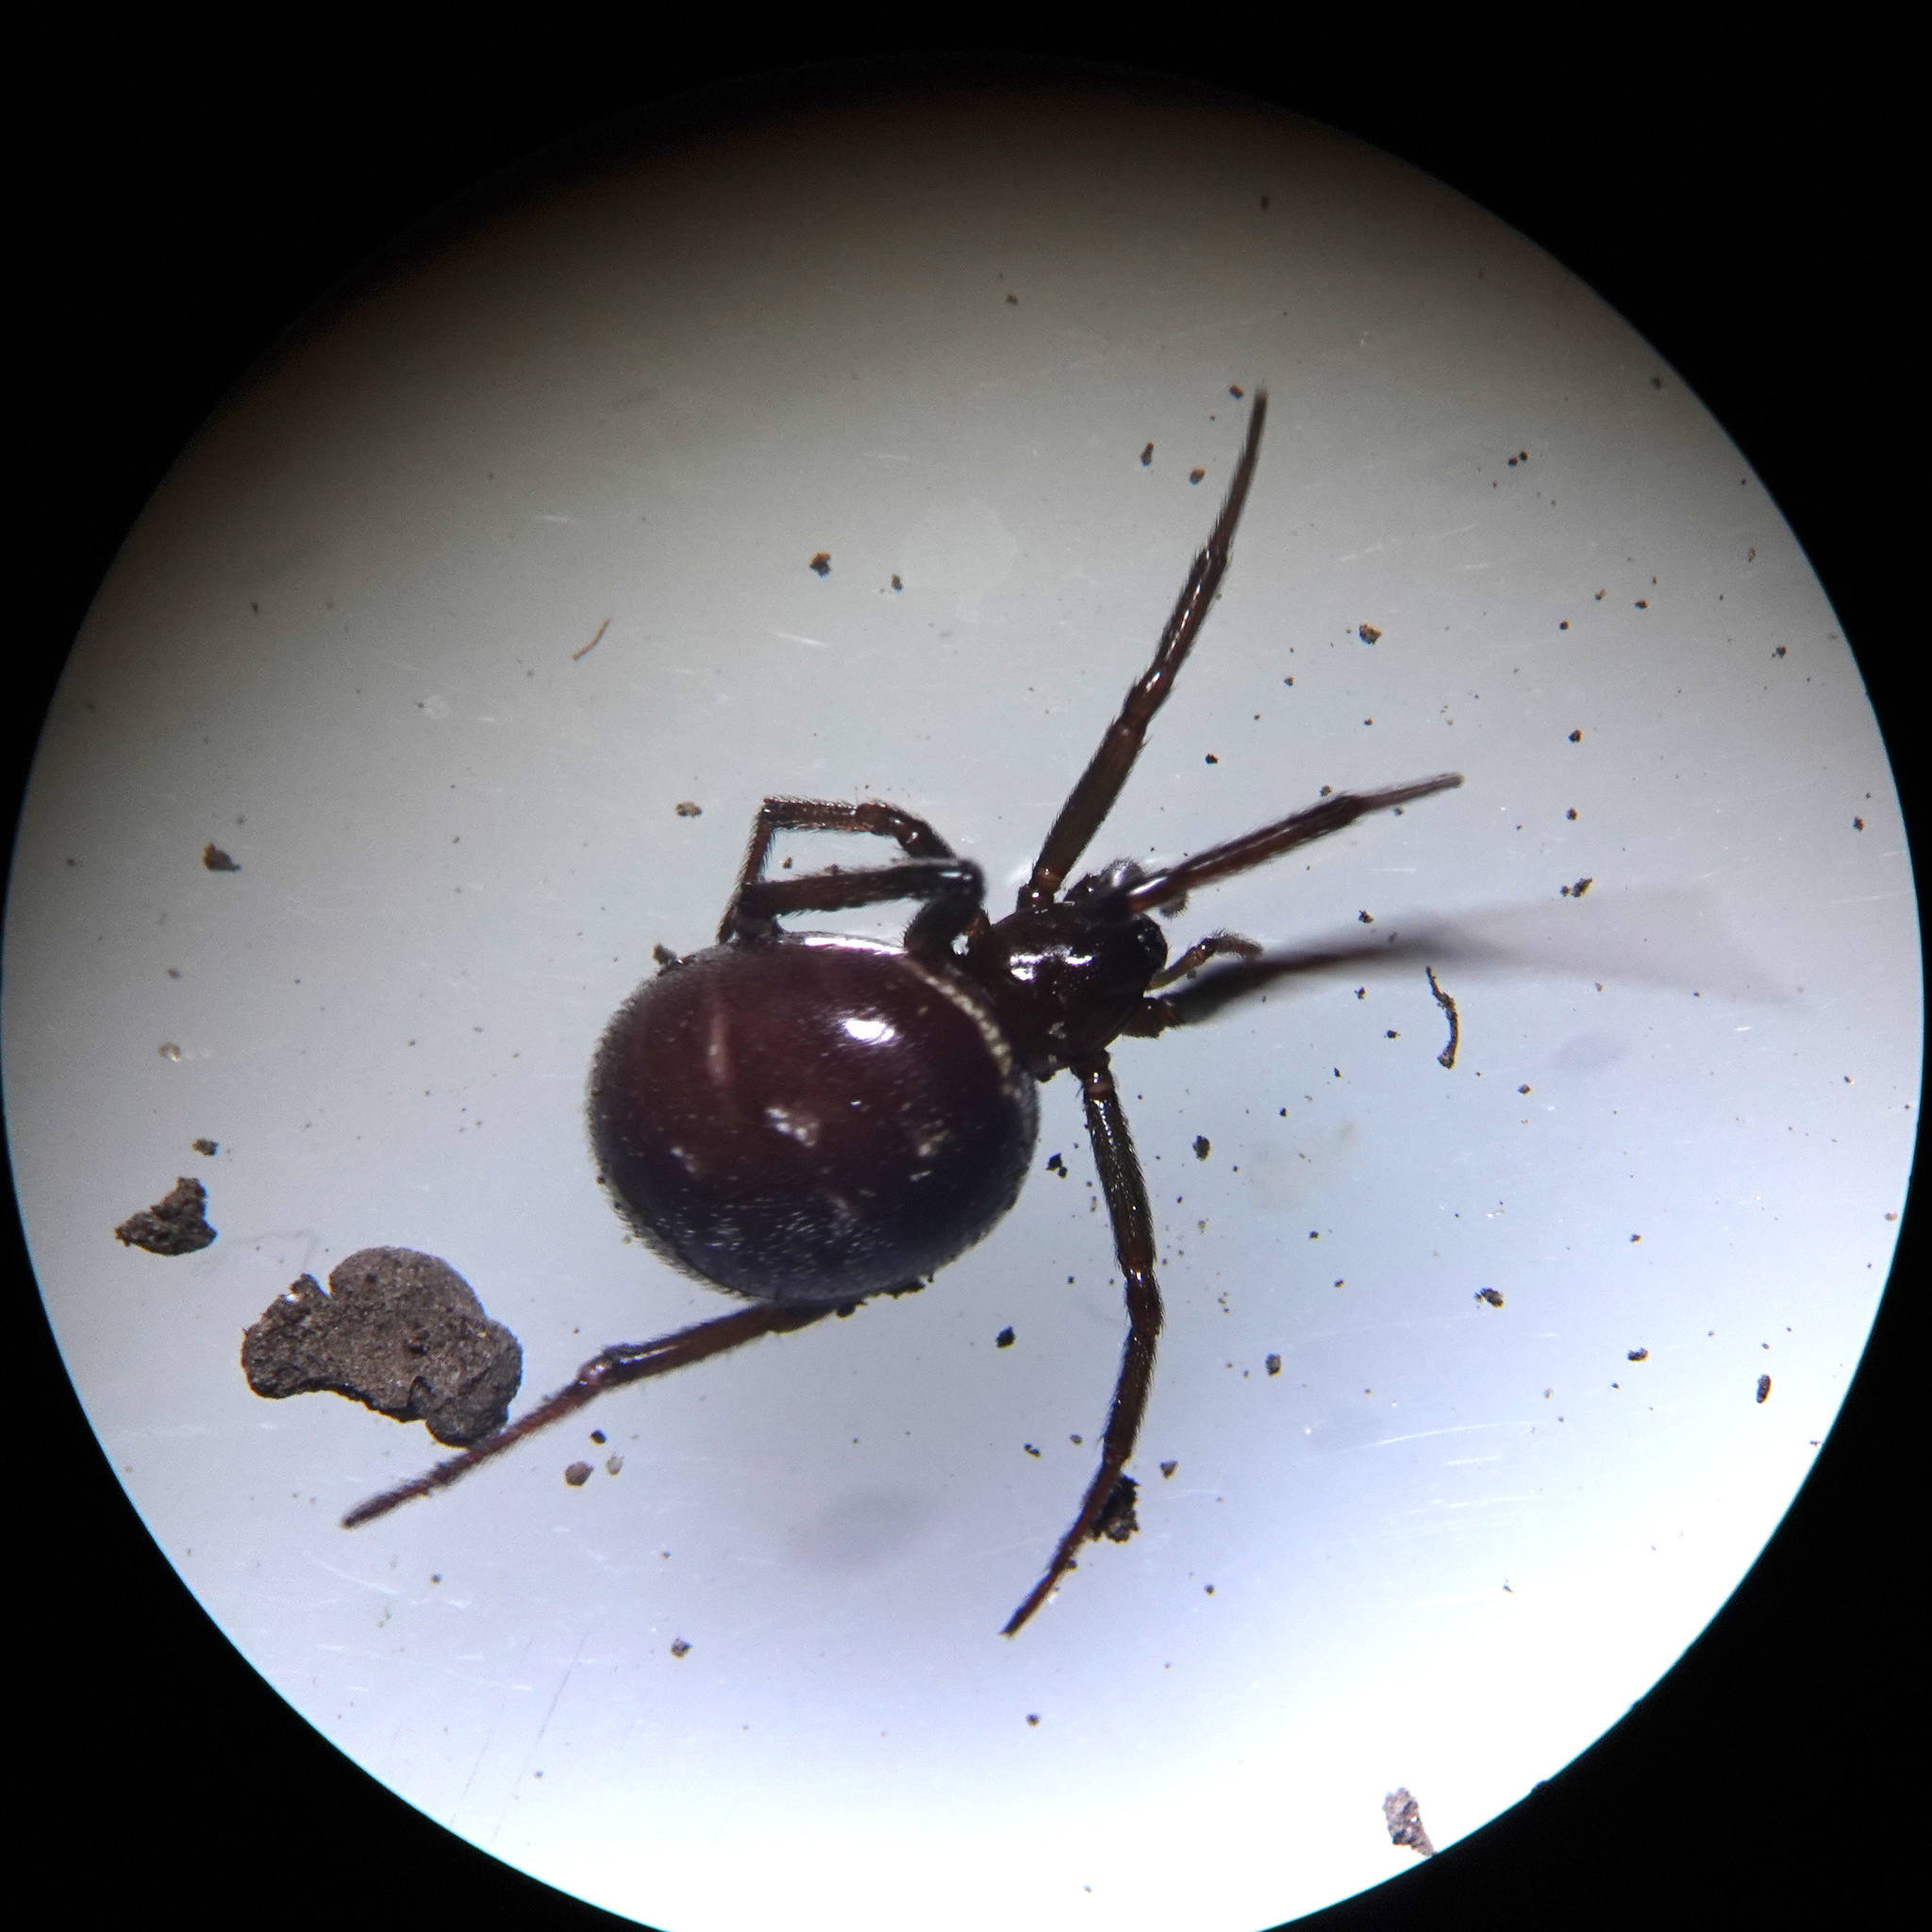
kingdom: Animalia
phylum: Arthropoda
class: Arachnida
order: Araneae
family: Theridiidae
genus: Steatoda
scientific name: Steatoda capensis
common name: Cobweb weaver
